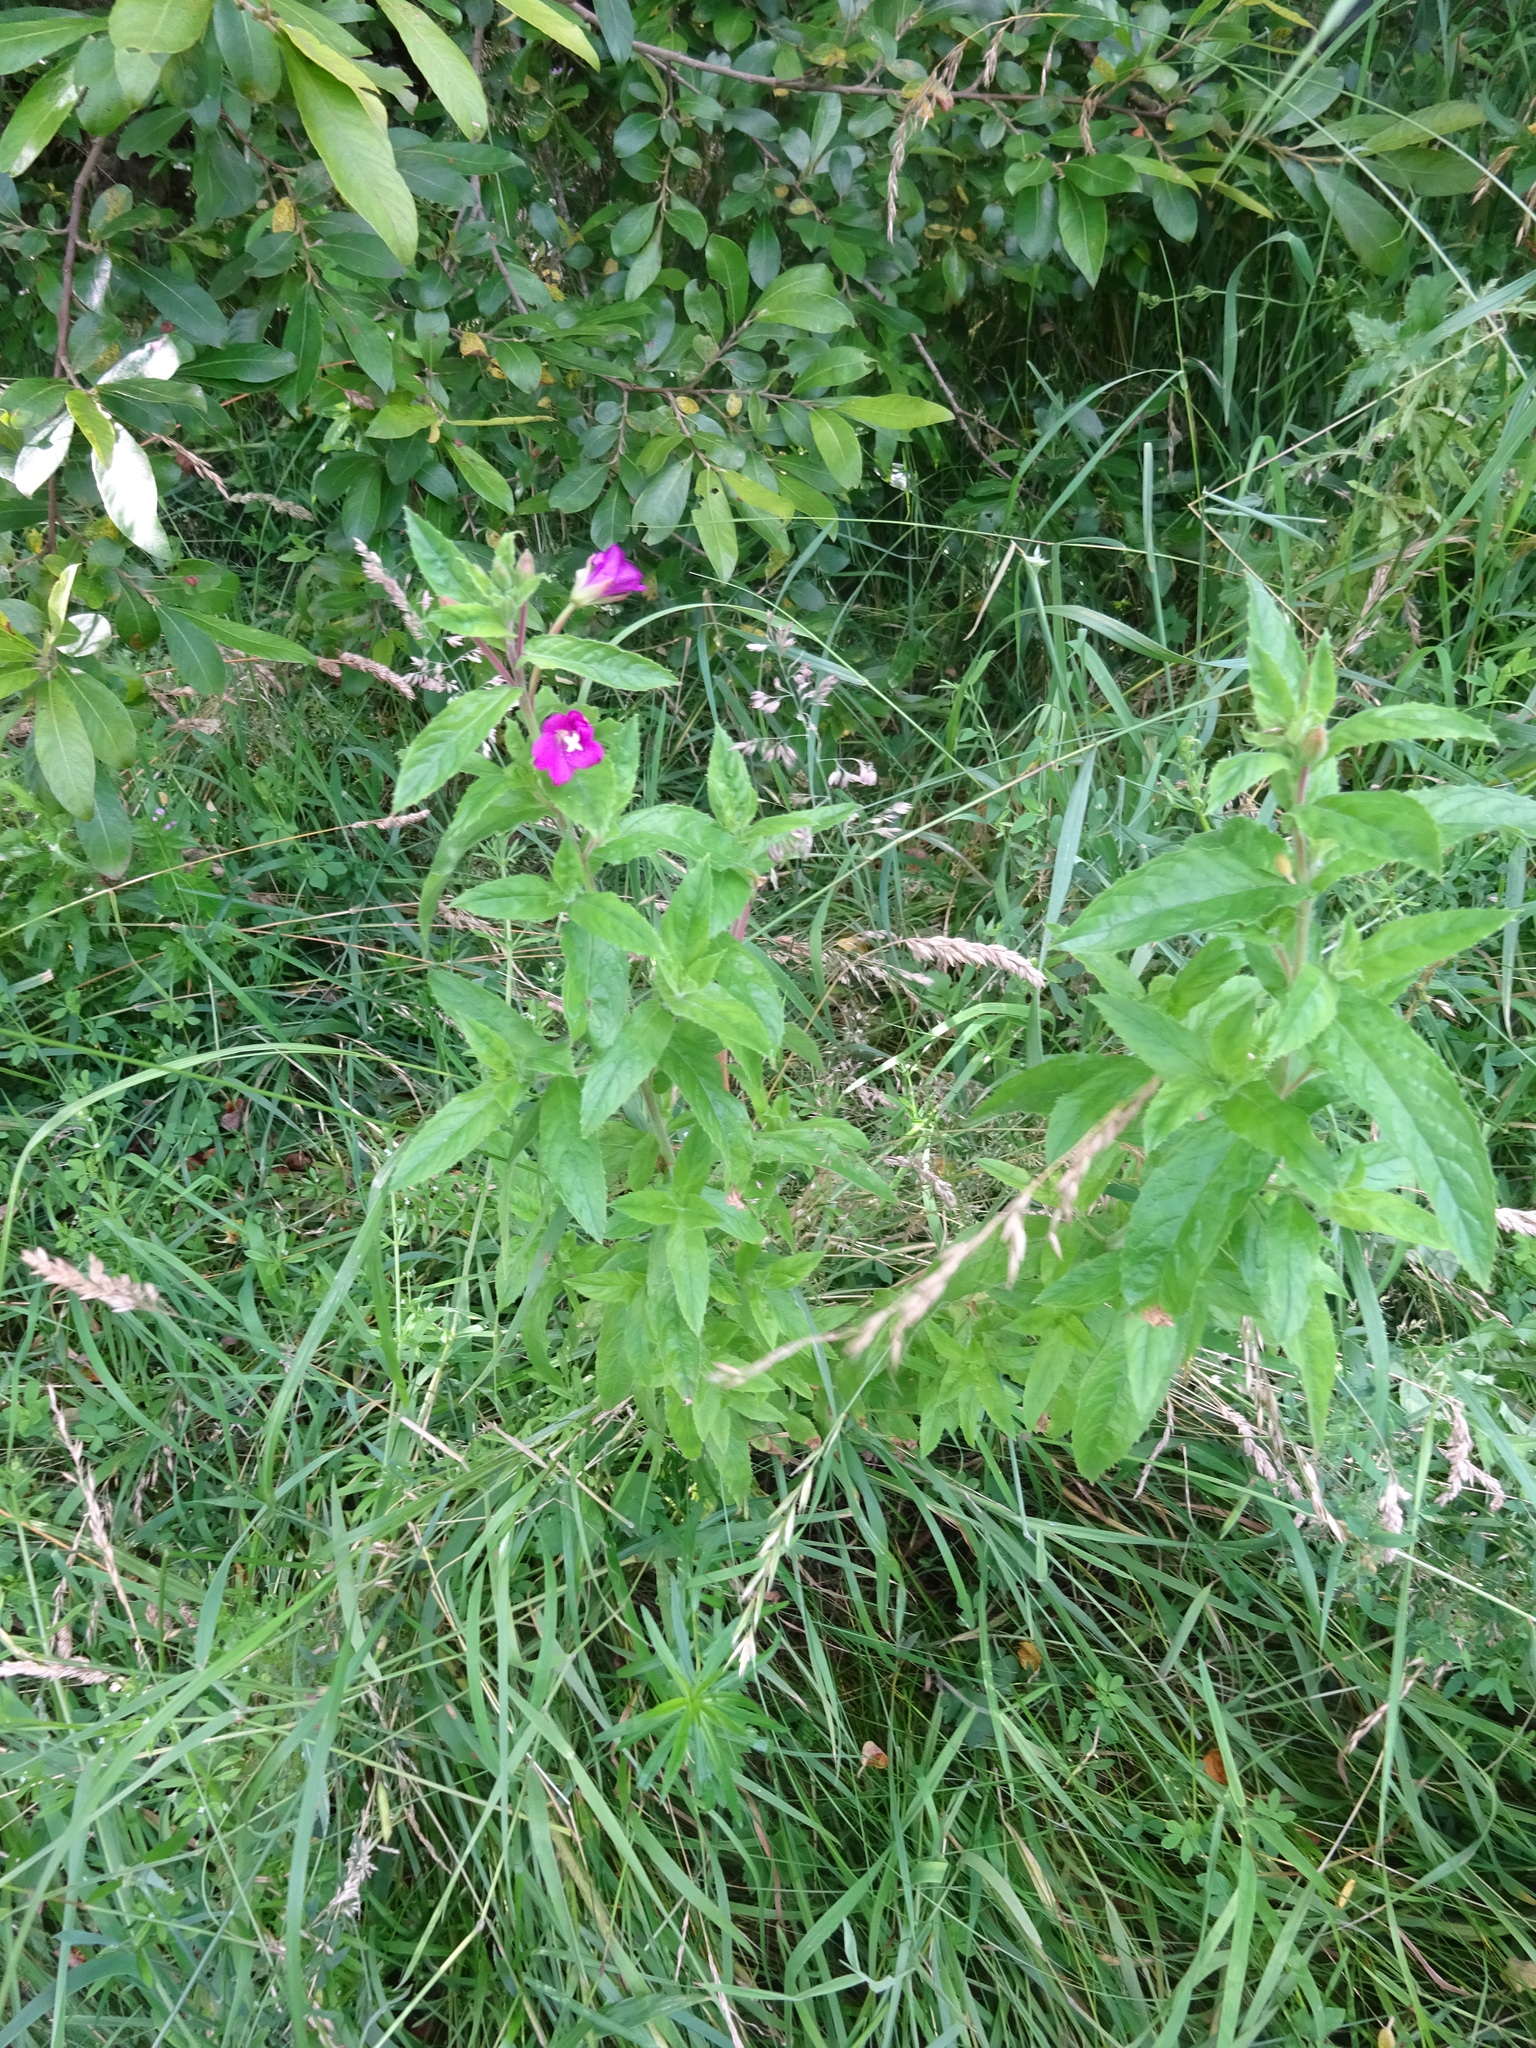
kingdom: Plantae
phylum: Tracheophyta
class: Magnoliopsida
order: Myrtales
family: Onagraceae
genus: Epilobium
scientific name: Epilobium hirsutum
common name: Great willowherb
